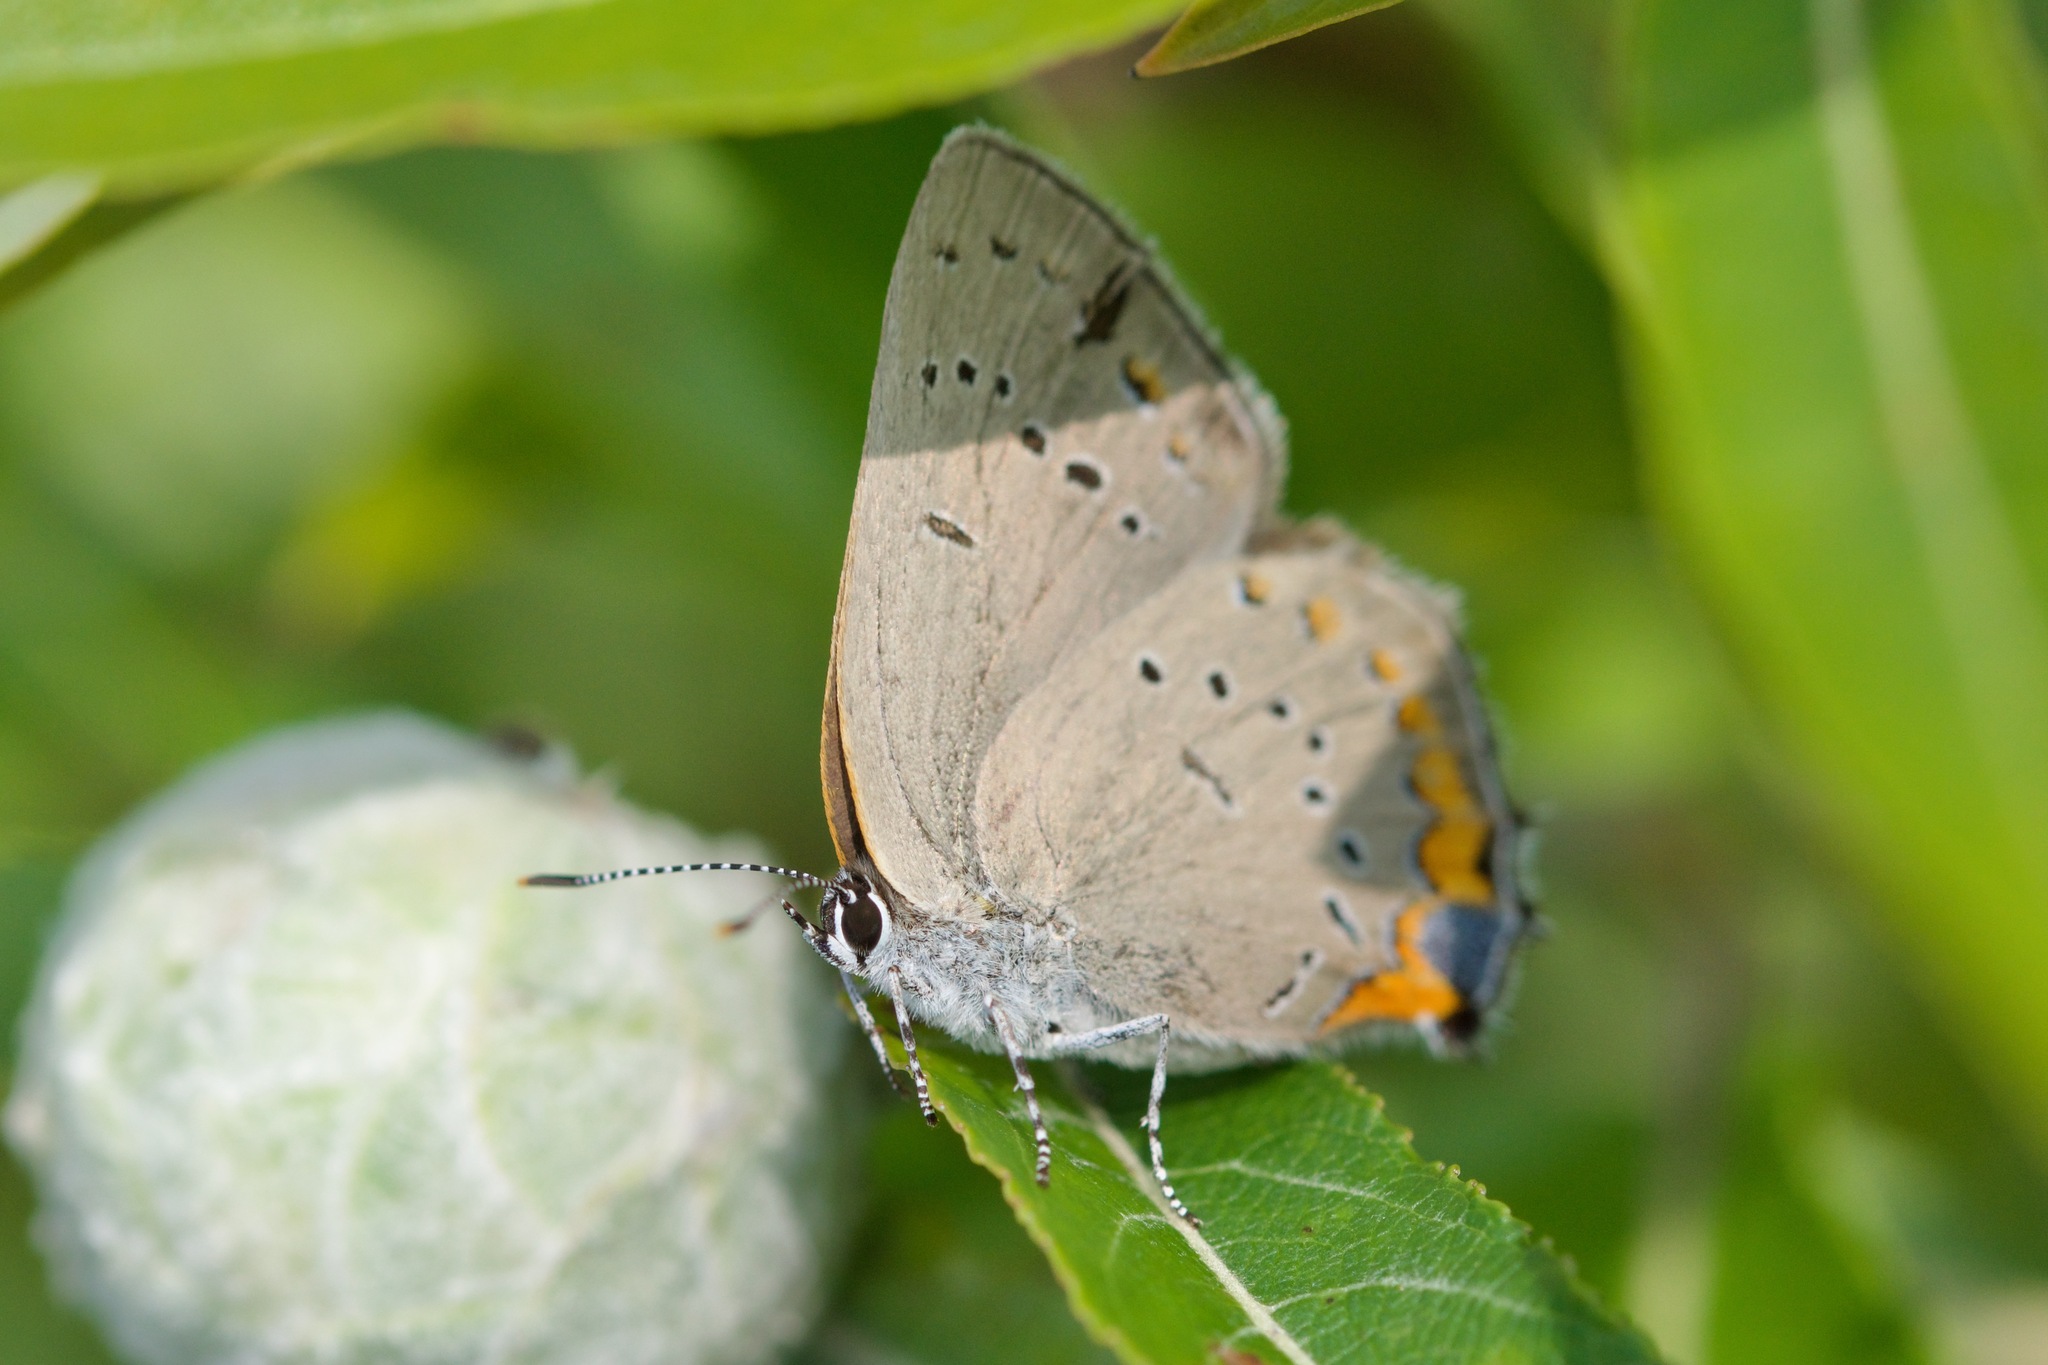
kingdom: Animalia
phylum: Arthropoda
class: Insecta
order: Lepidoptera
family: Lycaenidae
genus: Strymon
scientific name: Strymon acadica
